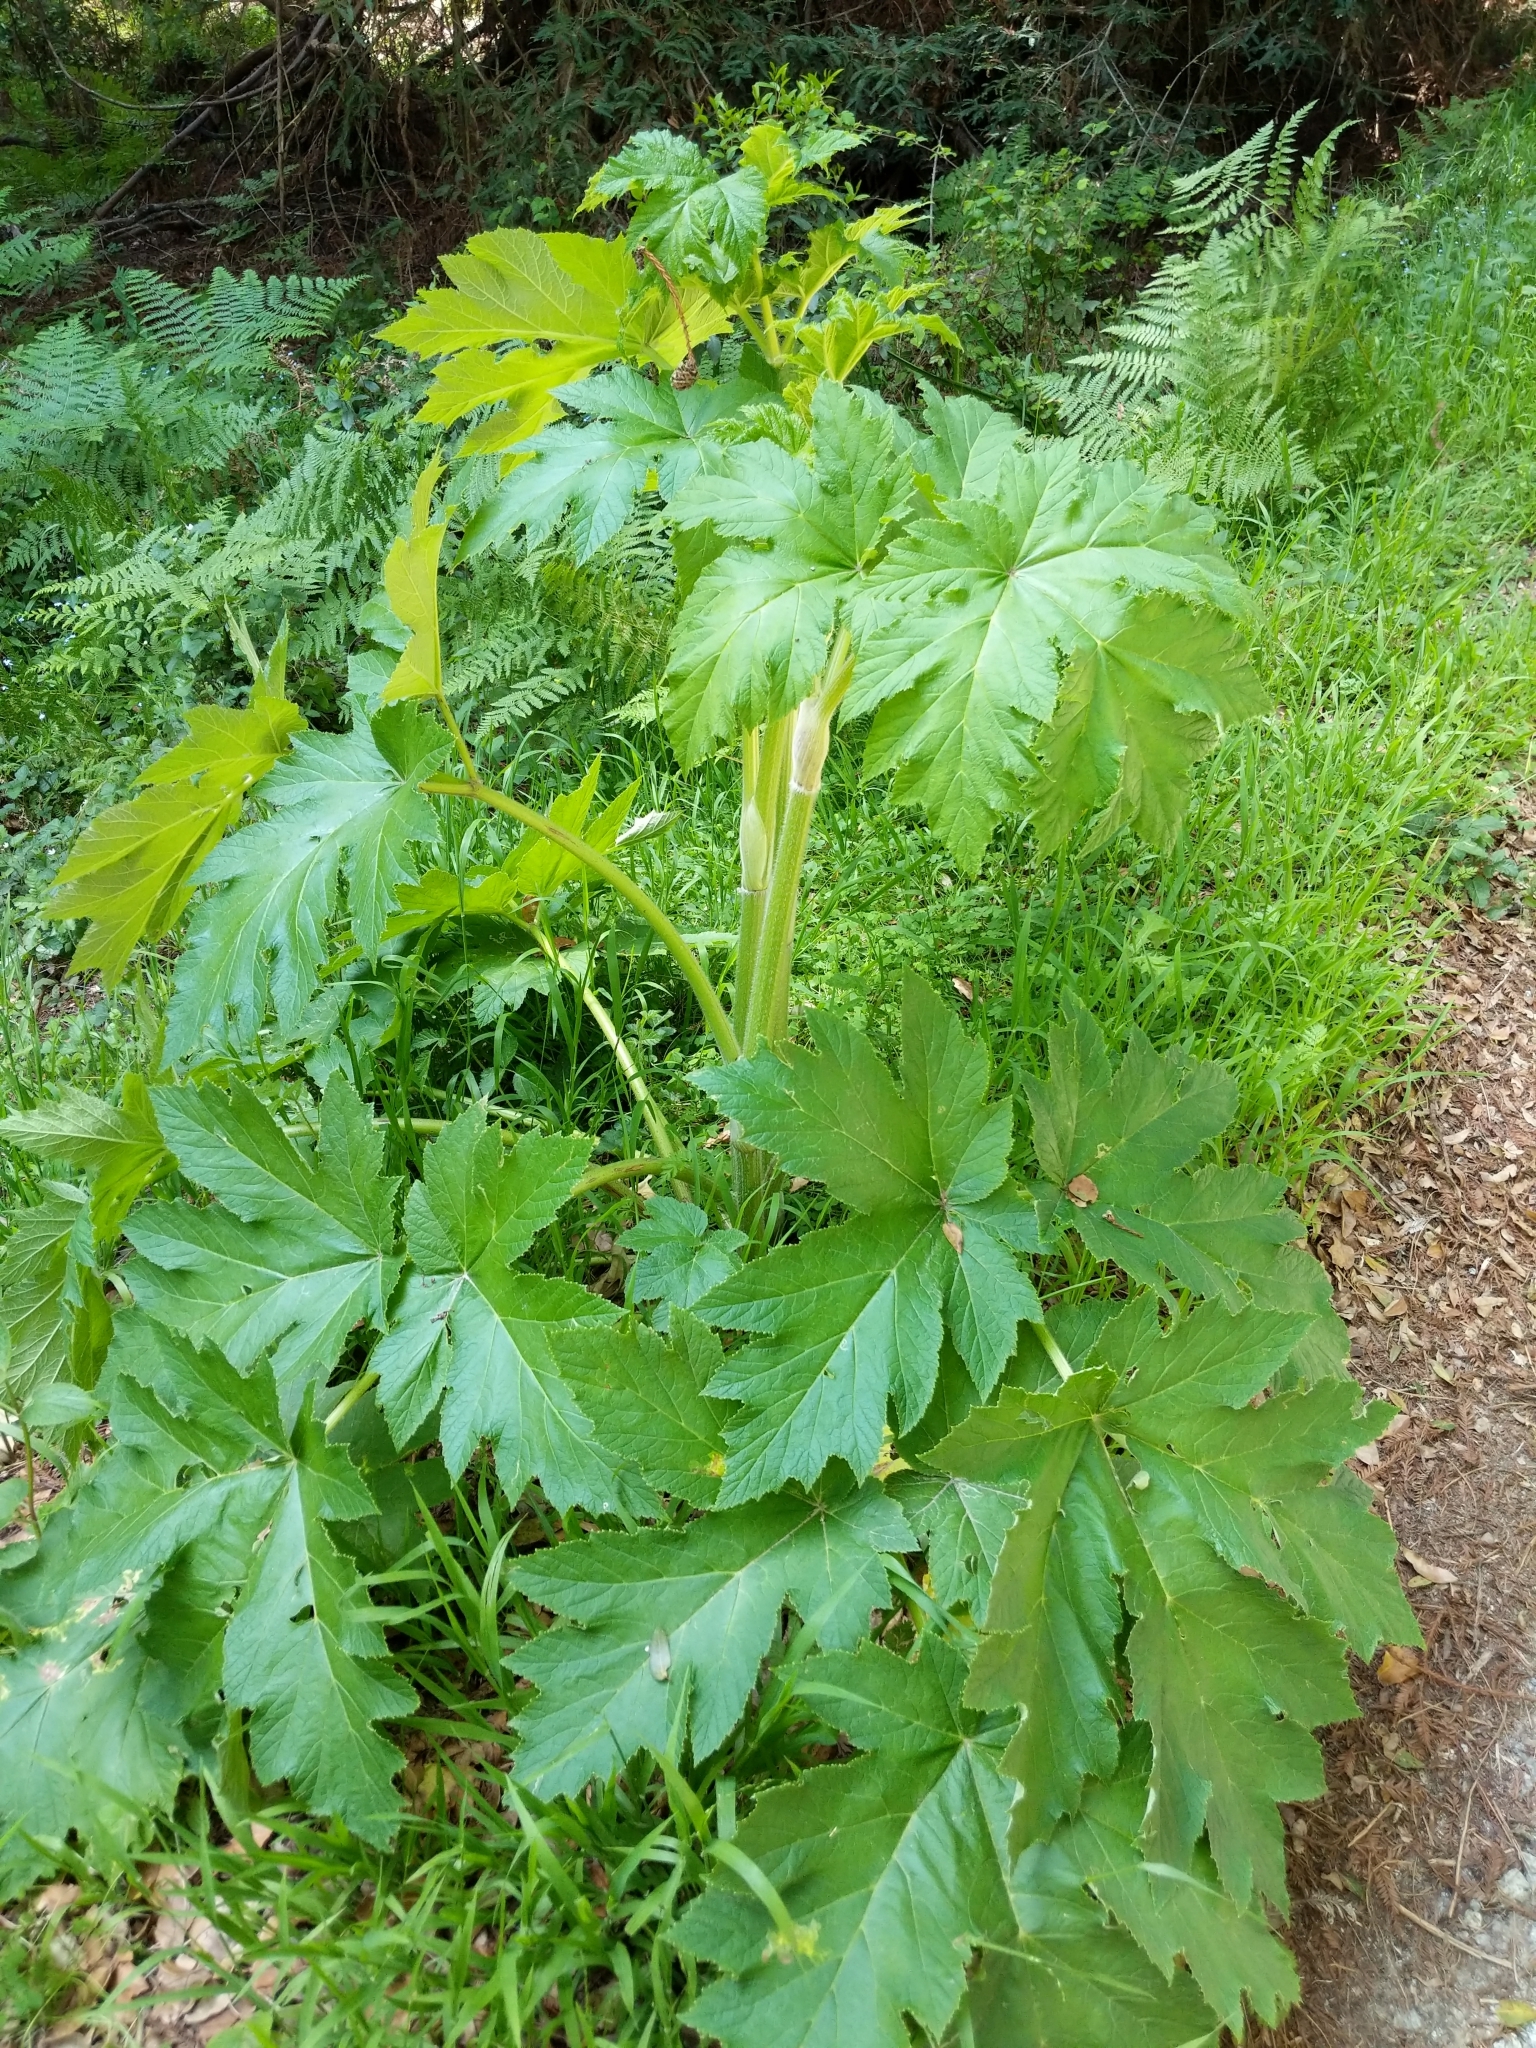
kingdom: Plantae
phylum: Tracheophyta
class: Magnoliopsida
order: Apiales
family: Apiaceae
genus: Heracleum
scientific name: Heracleum maximum
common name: American cow parsnip
